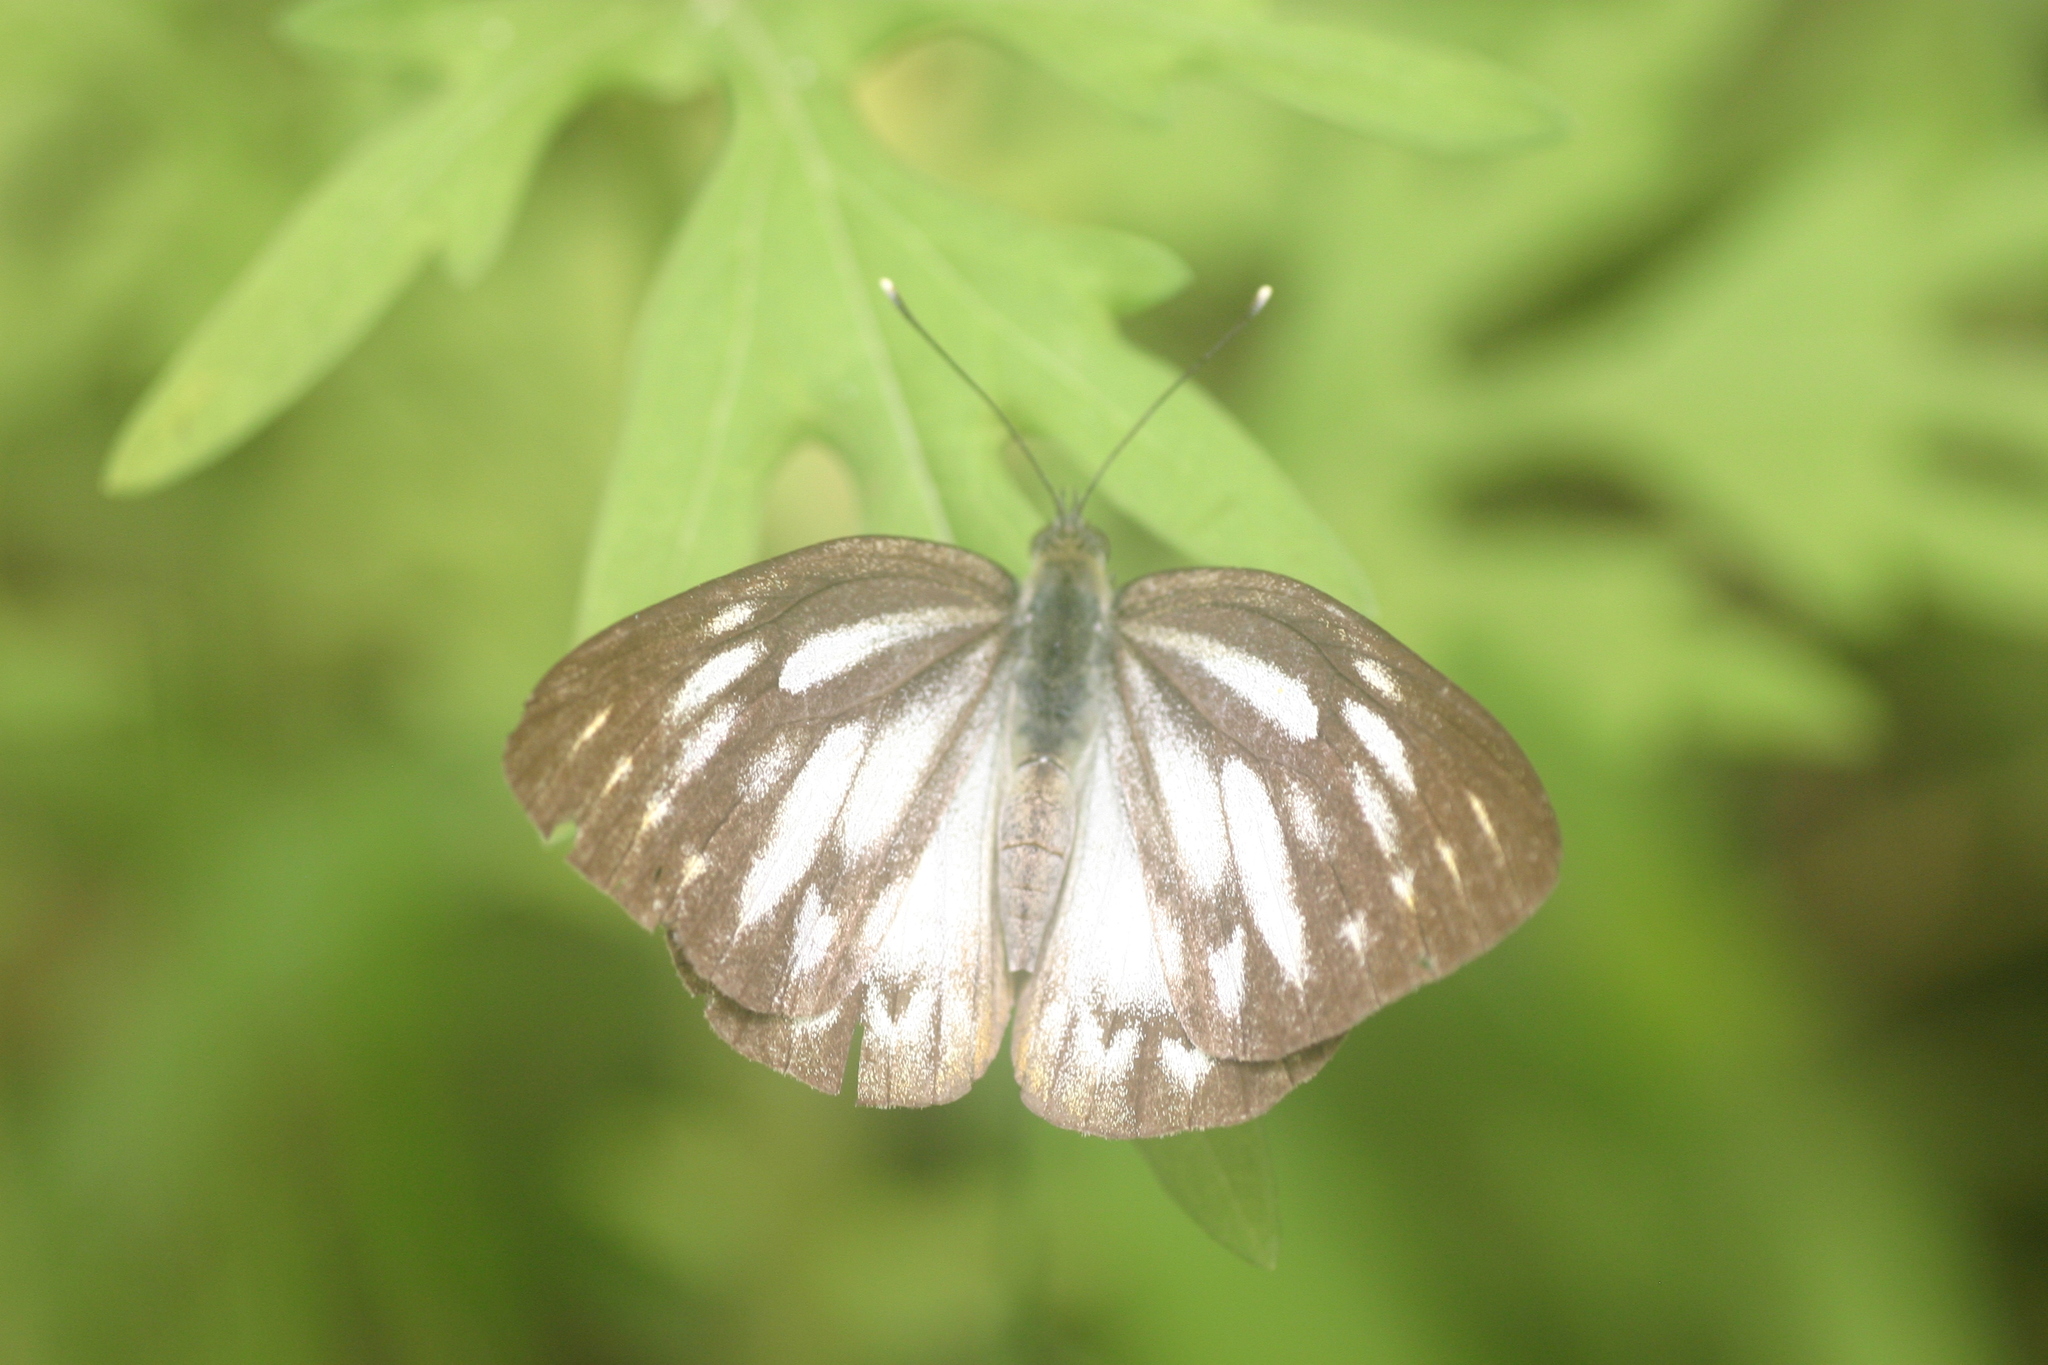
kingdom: Animalia
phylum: Arthropoda
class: Insecta
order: Lepidoptera
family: Pieridae
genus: Cepora
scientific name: Cepora nerissa
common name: Common gull
